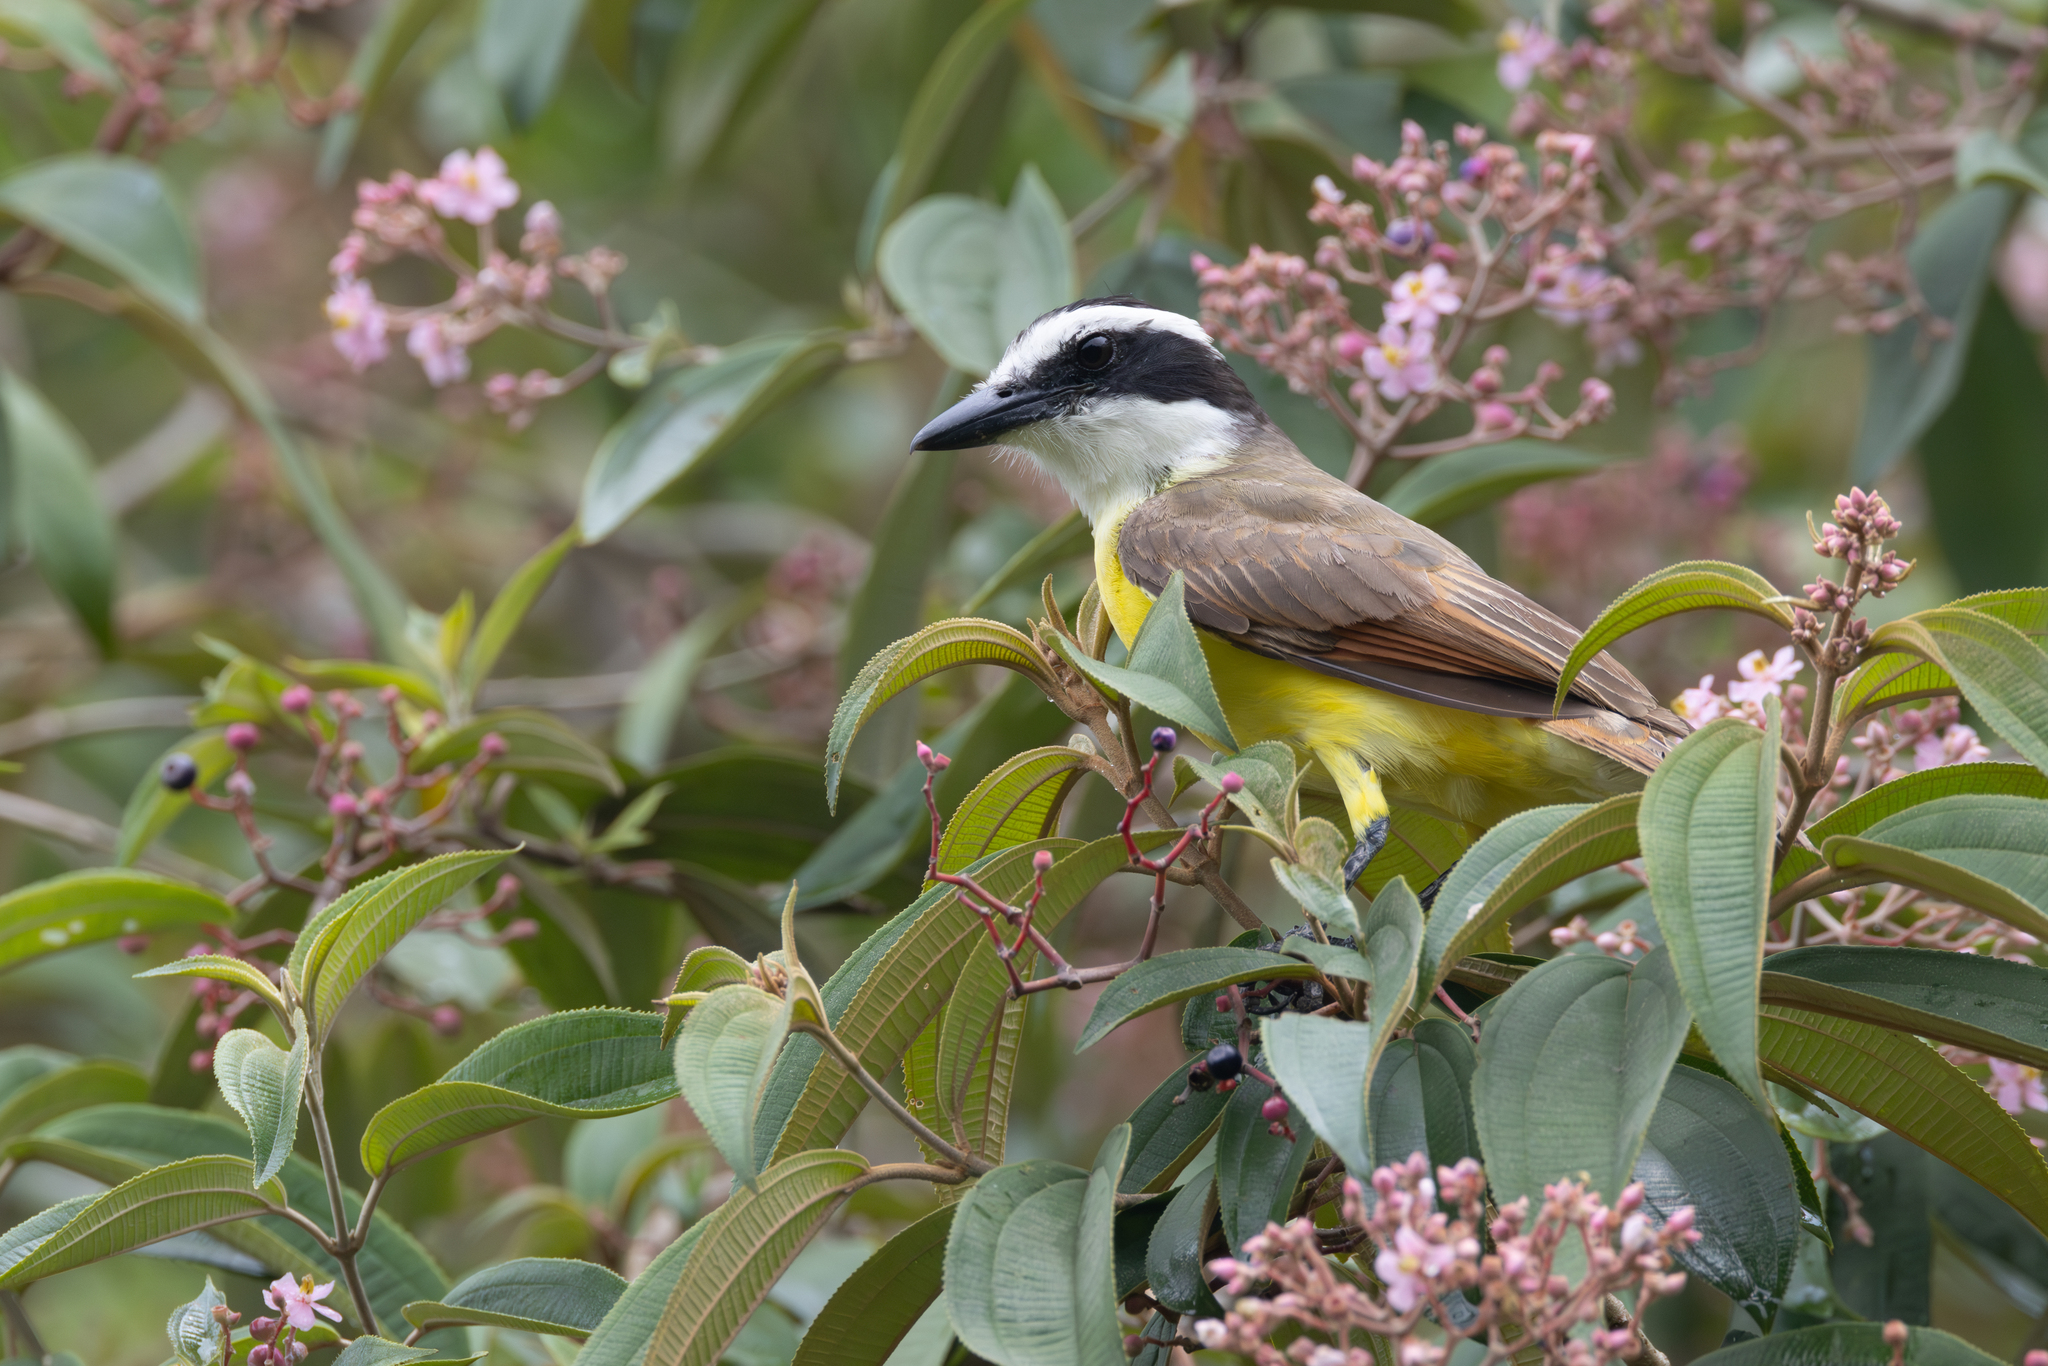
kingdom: Animalia
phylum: Chordata
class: Aves
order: Passeriformes
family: Tyrannidae
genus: Pitangus
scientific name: Pitangus sulphuratus
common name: Great kiskadee
